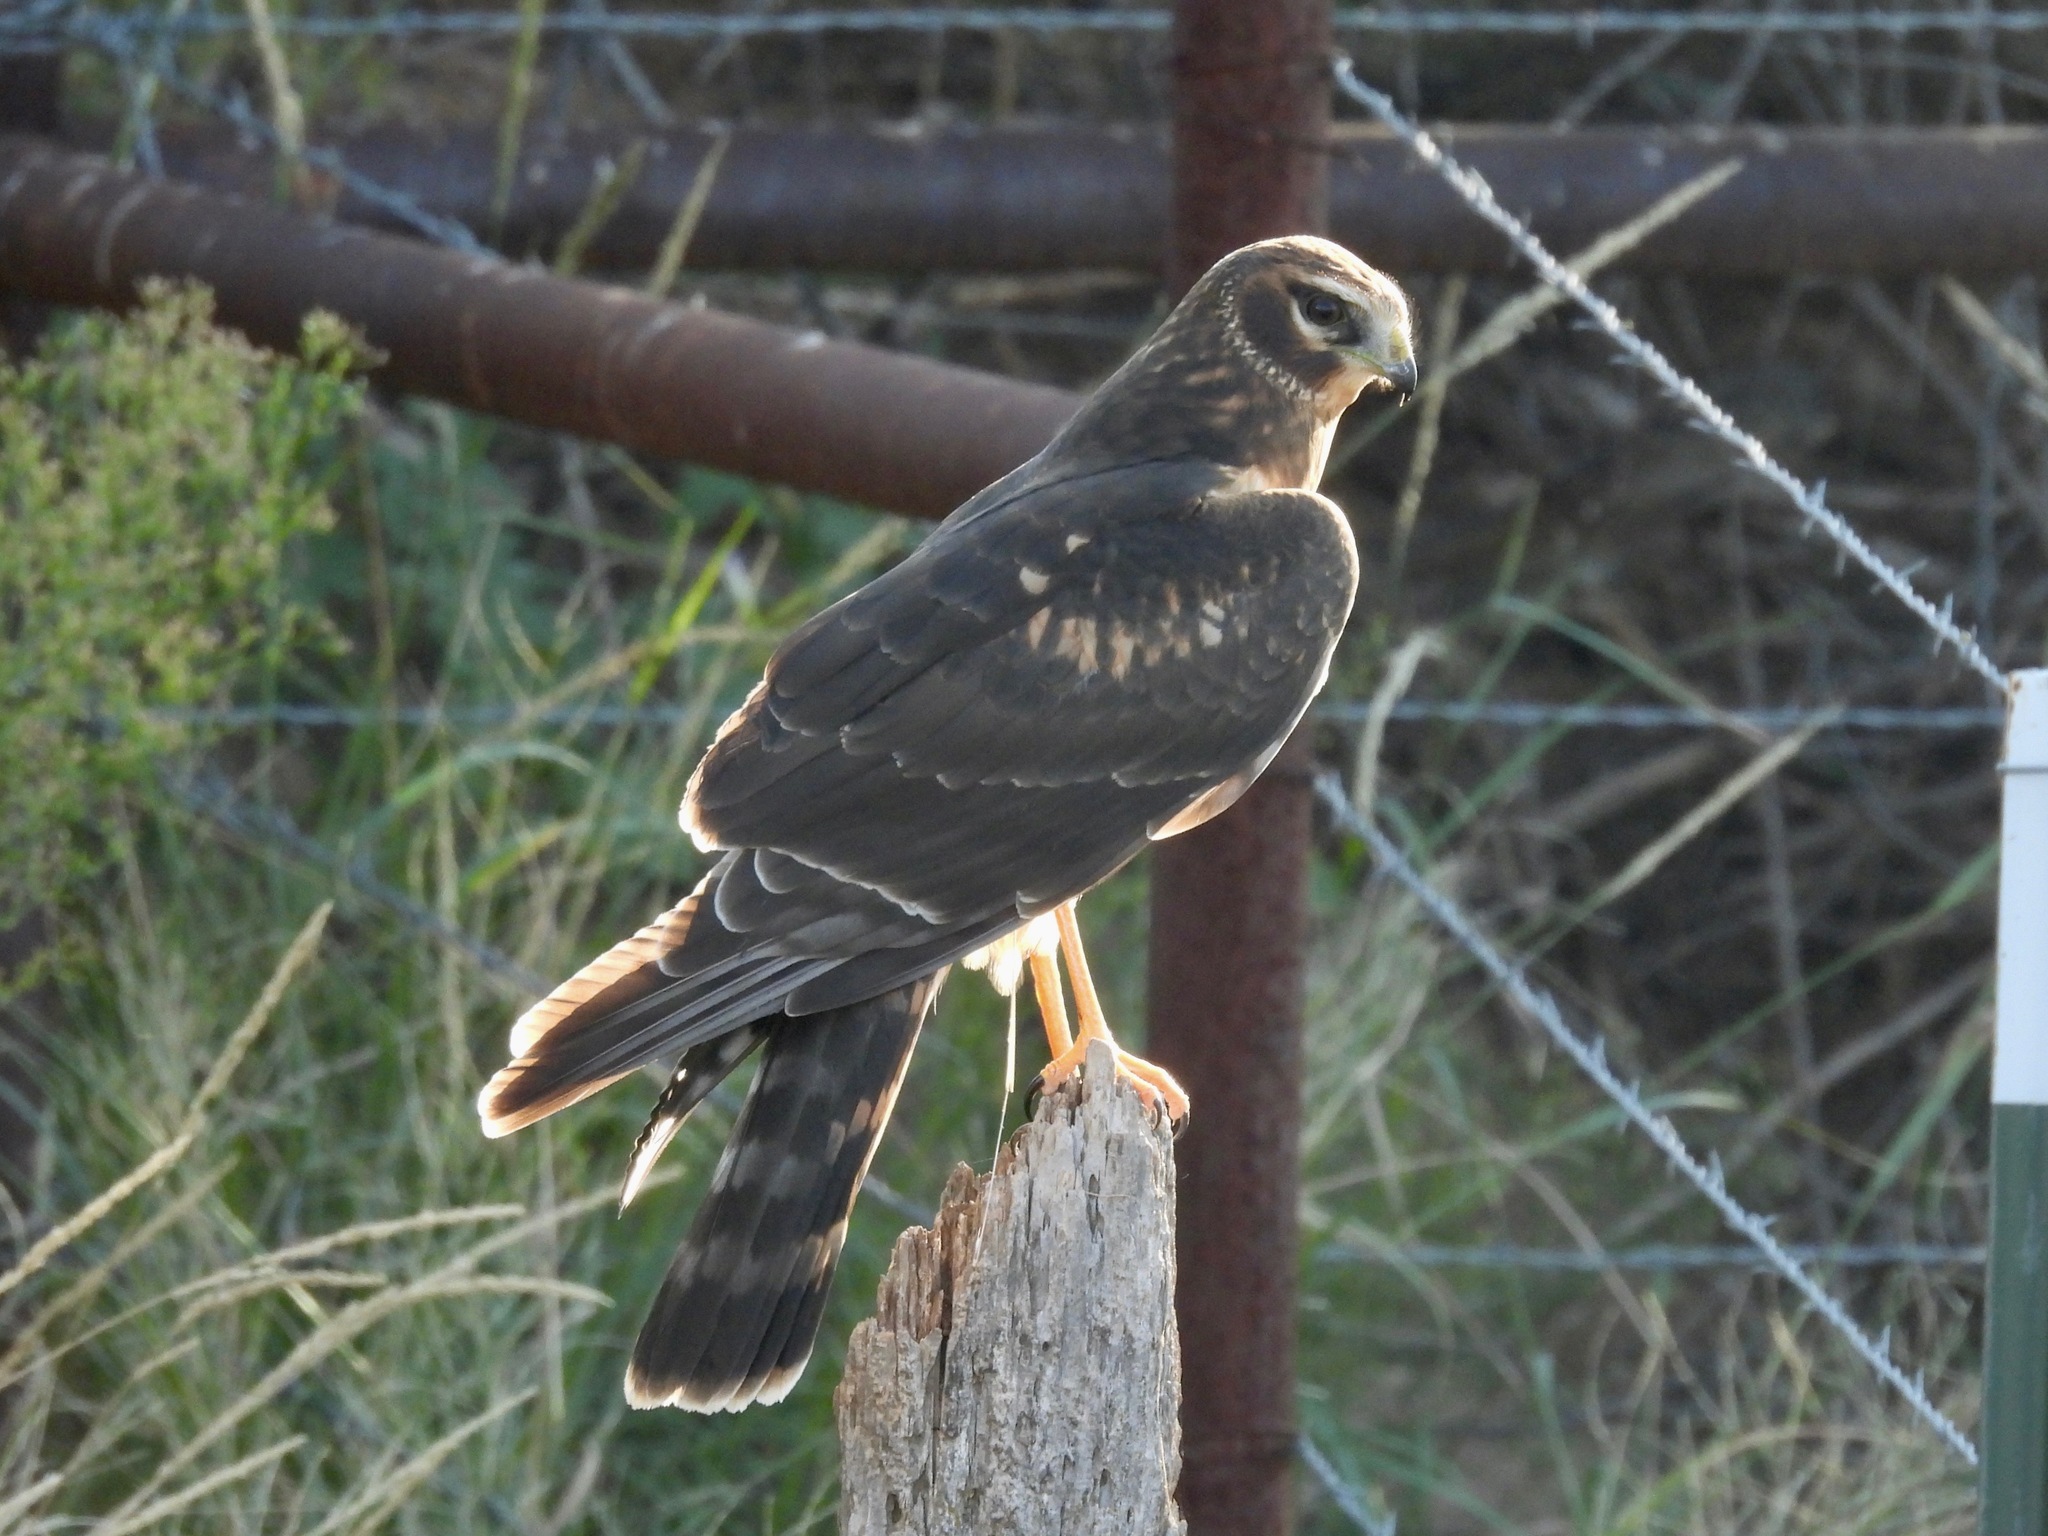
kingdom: Animalia
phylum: Chordata
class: Aves
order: Accipitriformes
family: Accipitridae
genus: Circus
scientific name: Circus cyaneus
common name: Hen harrier
